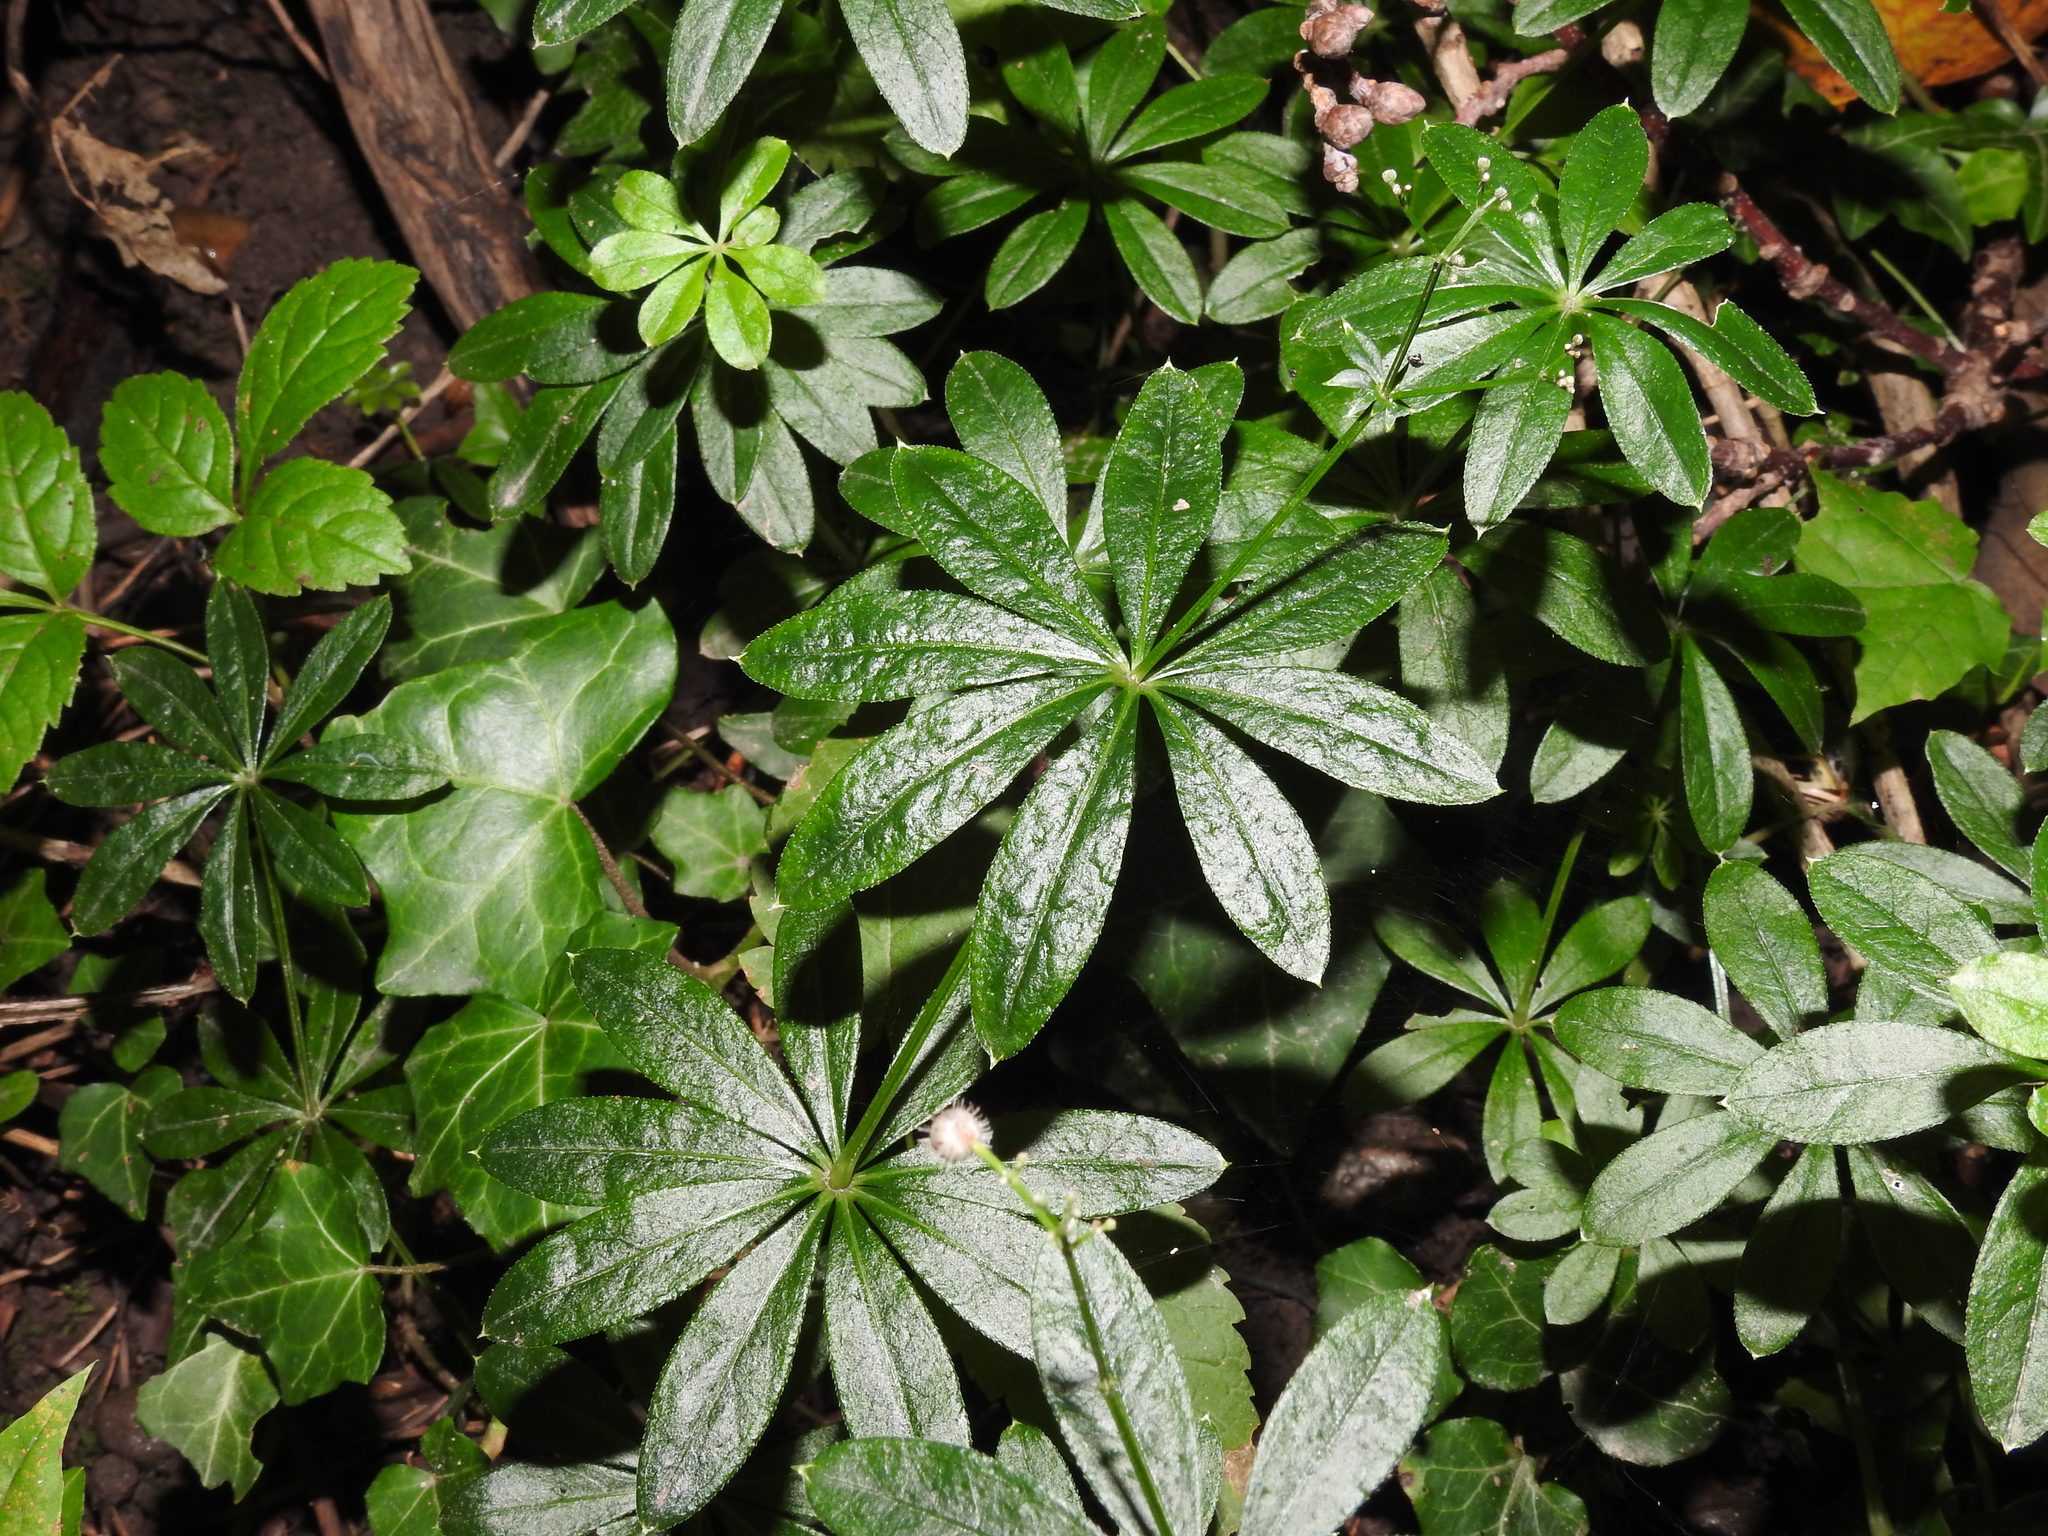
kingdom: Plantae
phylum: Tracheophyta
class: Magnoliopsida
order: Gentianales
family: Rubiaceae
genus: Galium
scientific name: Galium odoratum
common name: Sweet woodruff
